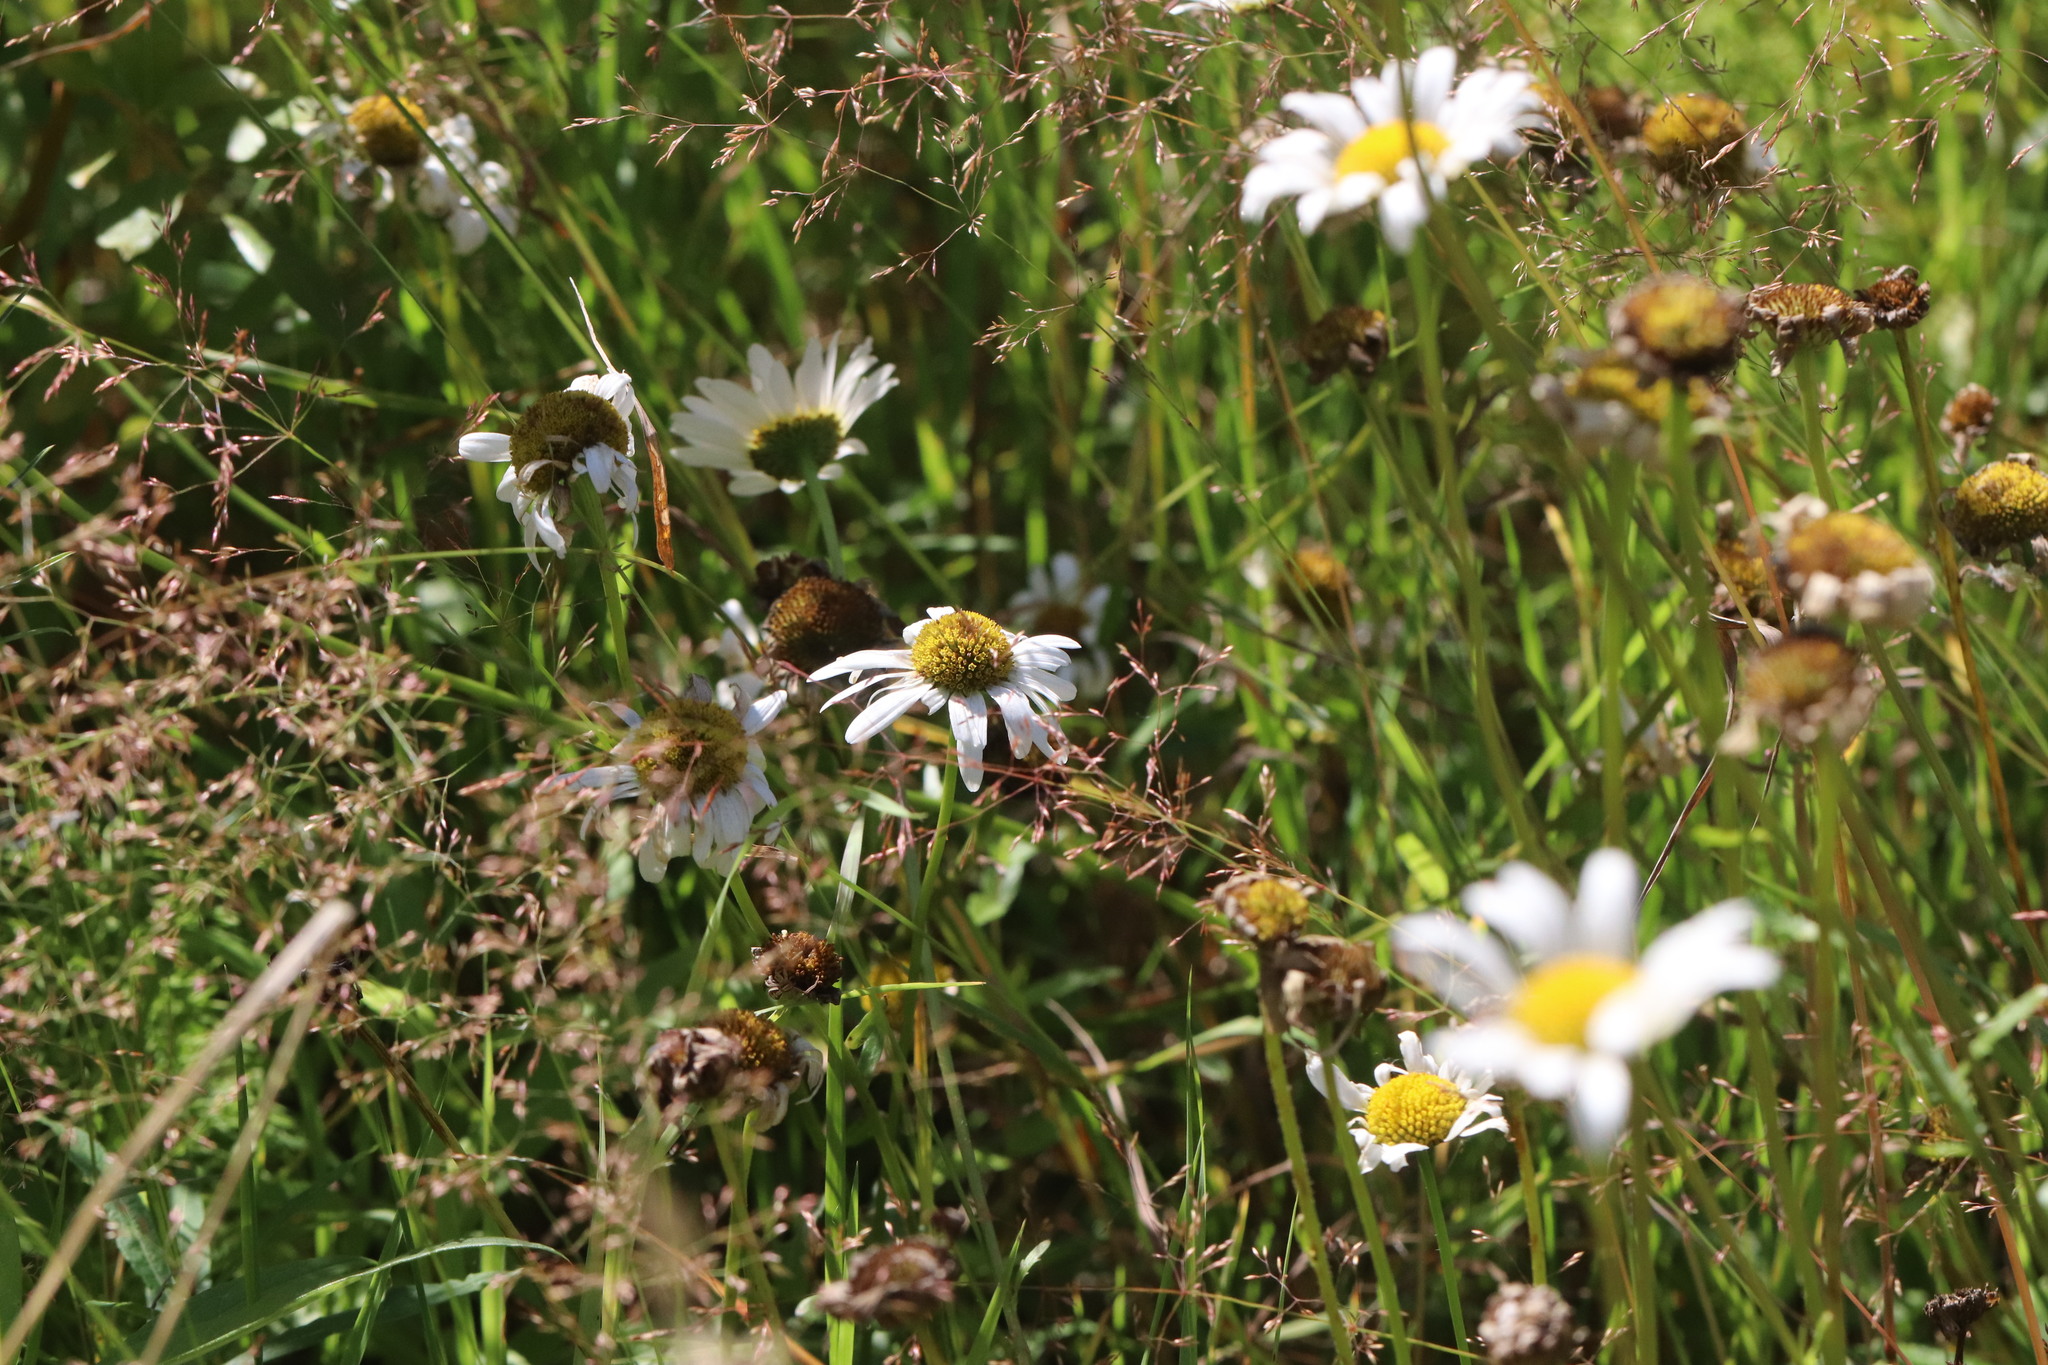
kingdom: Plantae
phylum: Tracheophyta
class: Magnoliopsida
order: Asterales
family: Asteraceae
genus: Leucanthemum
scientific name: Leucanthemum ircutianum
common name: Daisy
